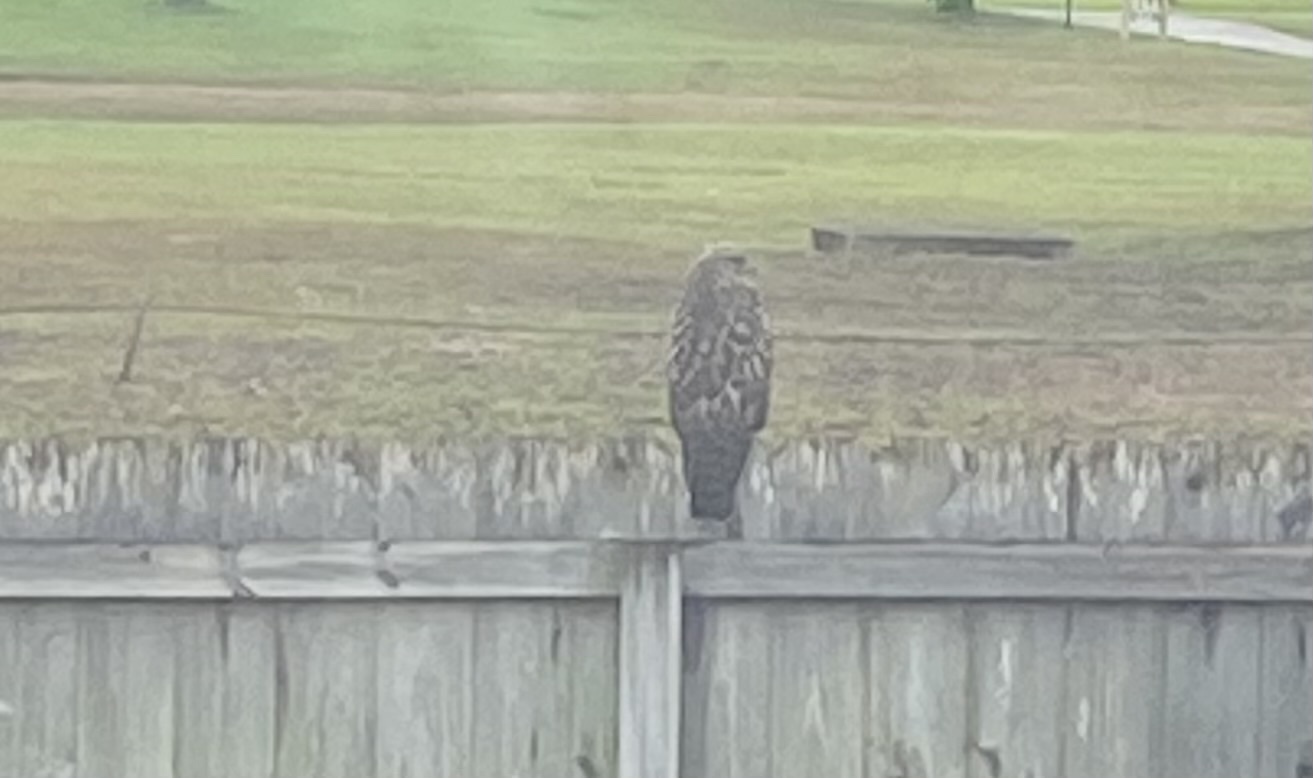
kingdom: Animalia
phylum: Chordata
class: Aves
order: Accipitriformes
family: Accipitridae
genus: Buteo
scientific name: Buteo lineatus
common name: Red-shouldered hawk
